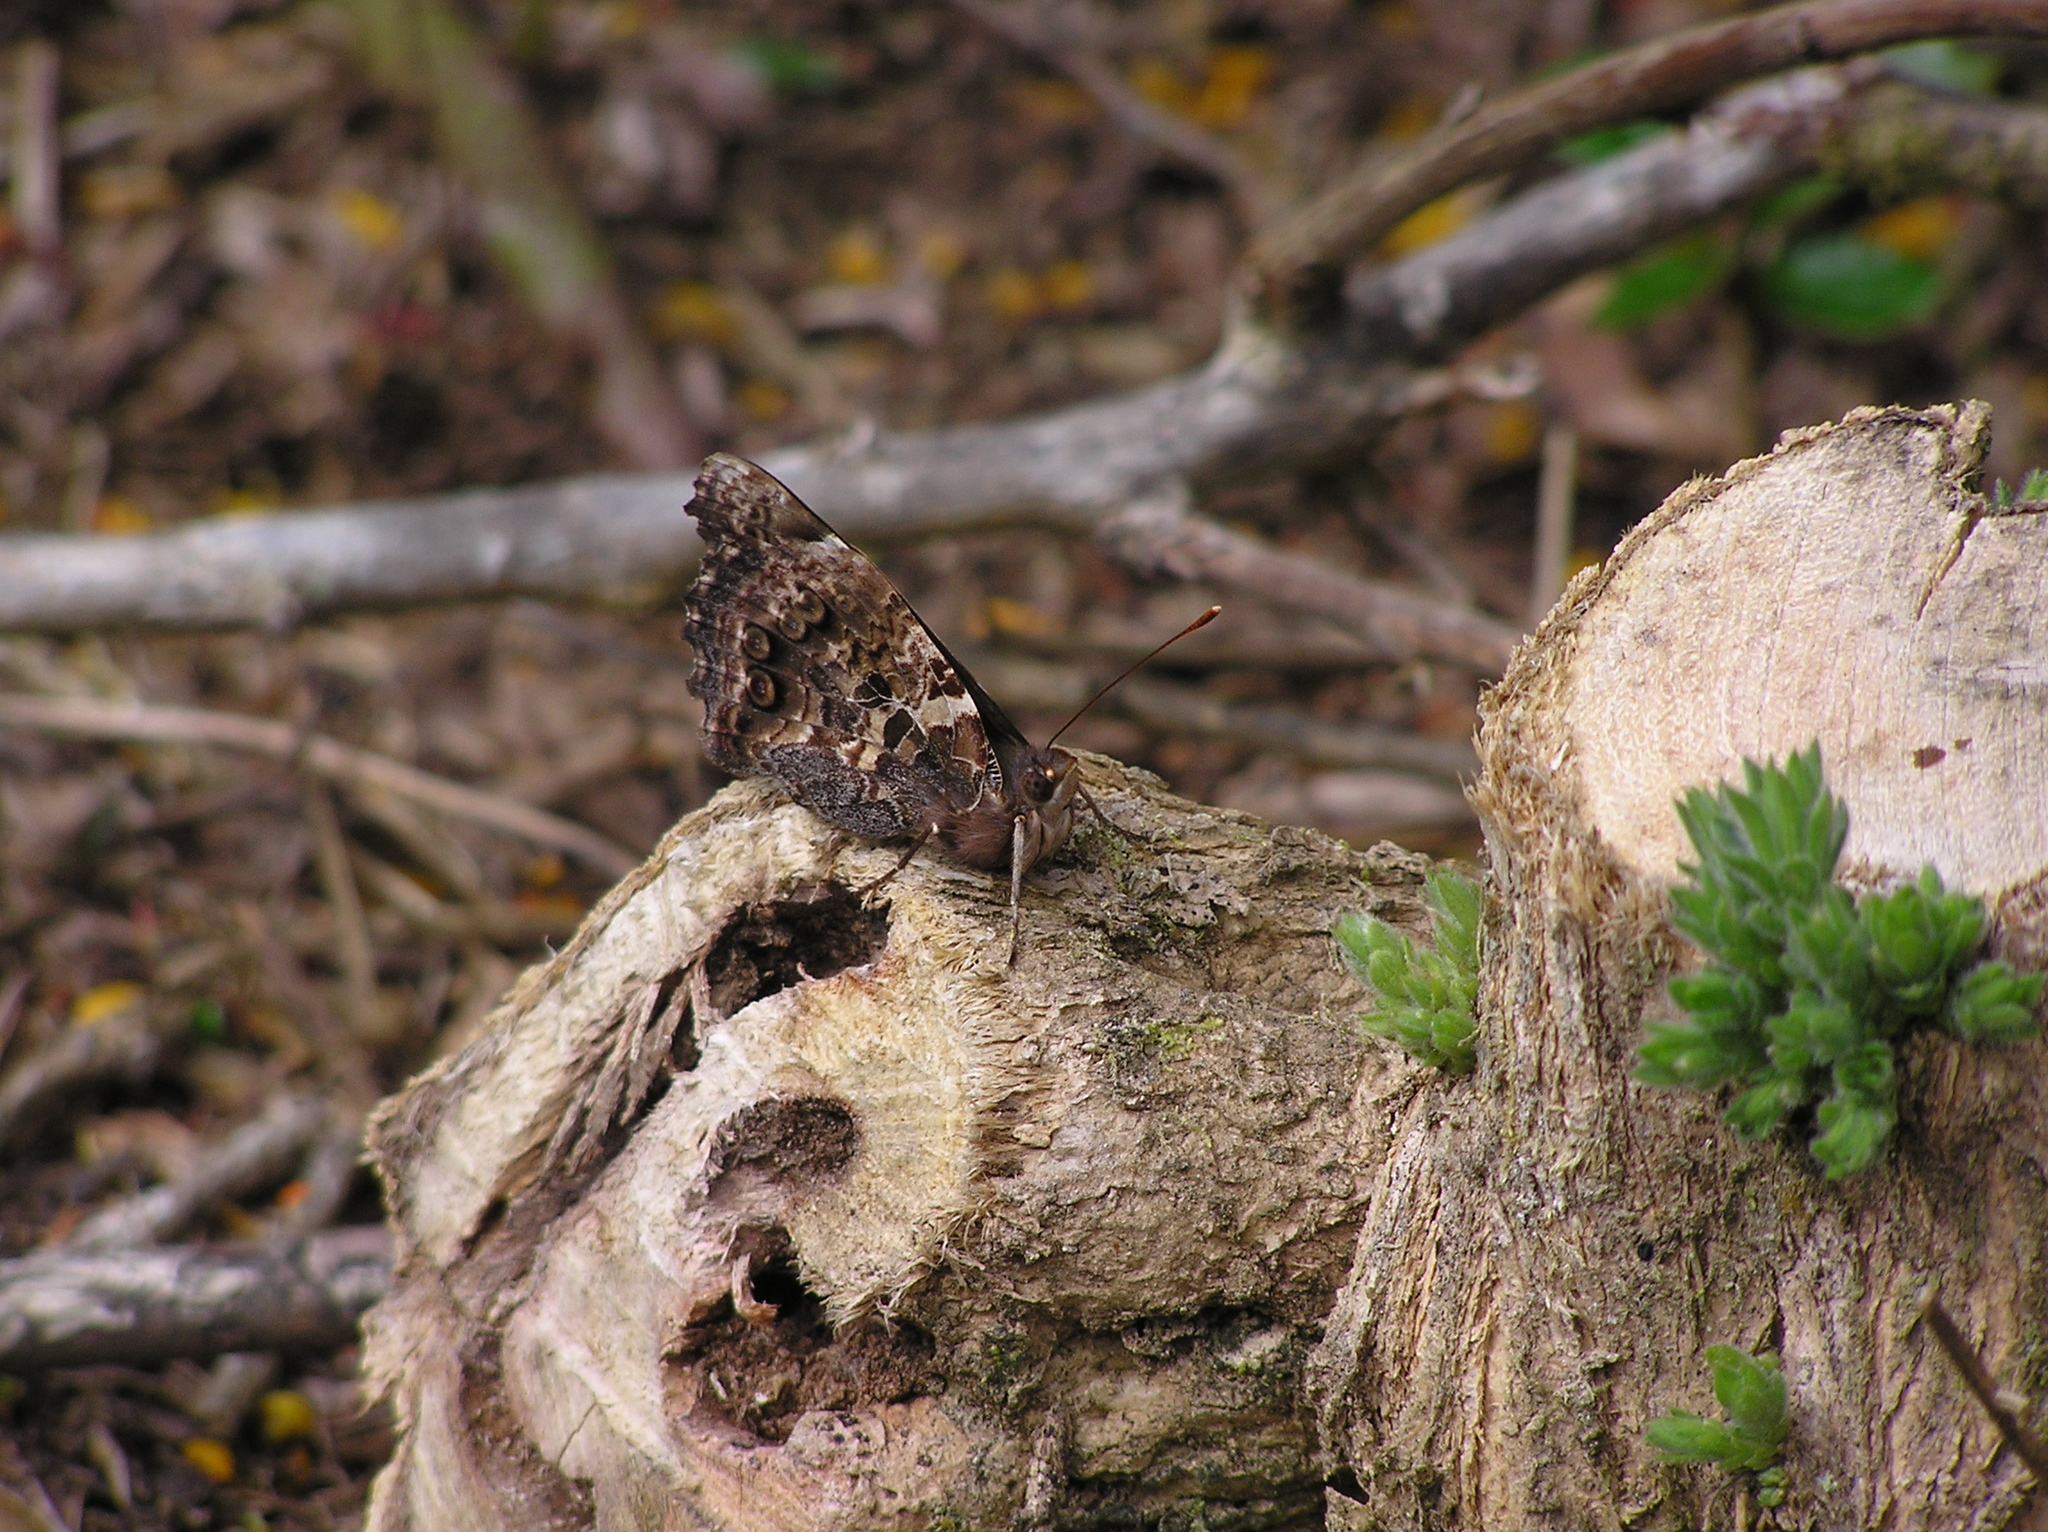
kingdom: Animalia
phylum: Arthropoda
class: Insecta
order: Lepidoptera
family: Nymphalidae
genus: Vanessa
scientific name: Vanessa gonerilla
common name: New zealand red admiral
